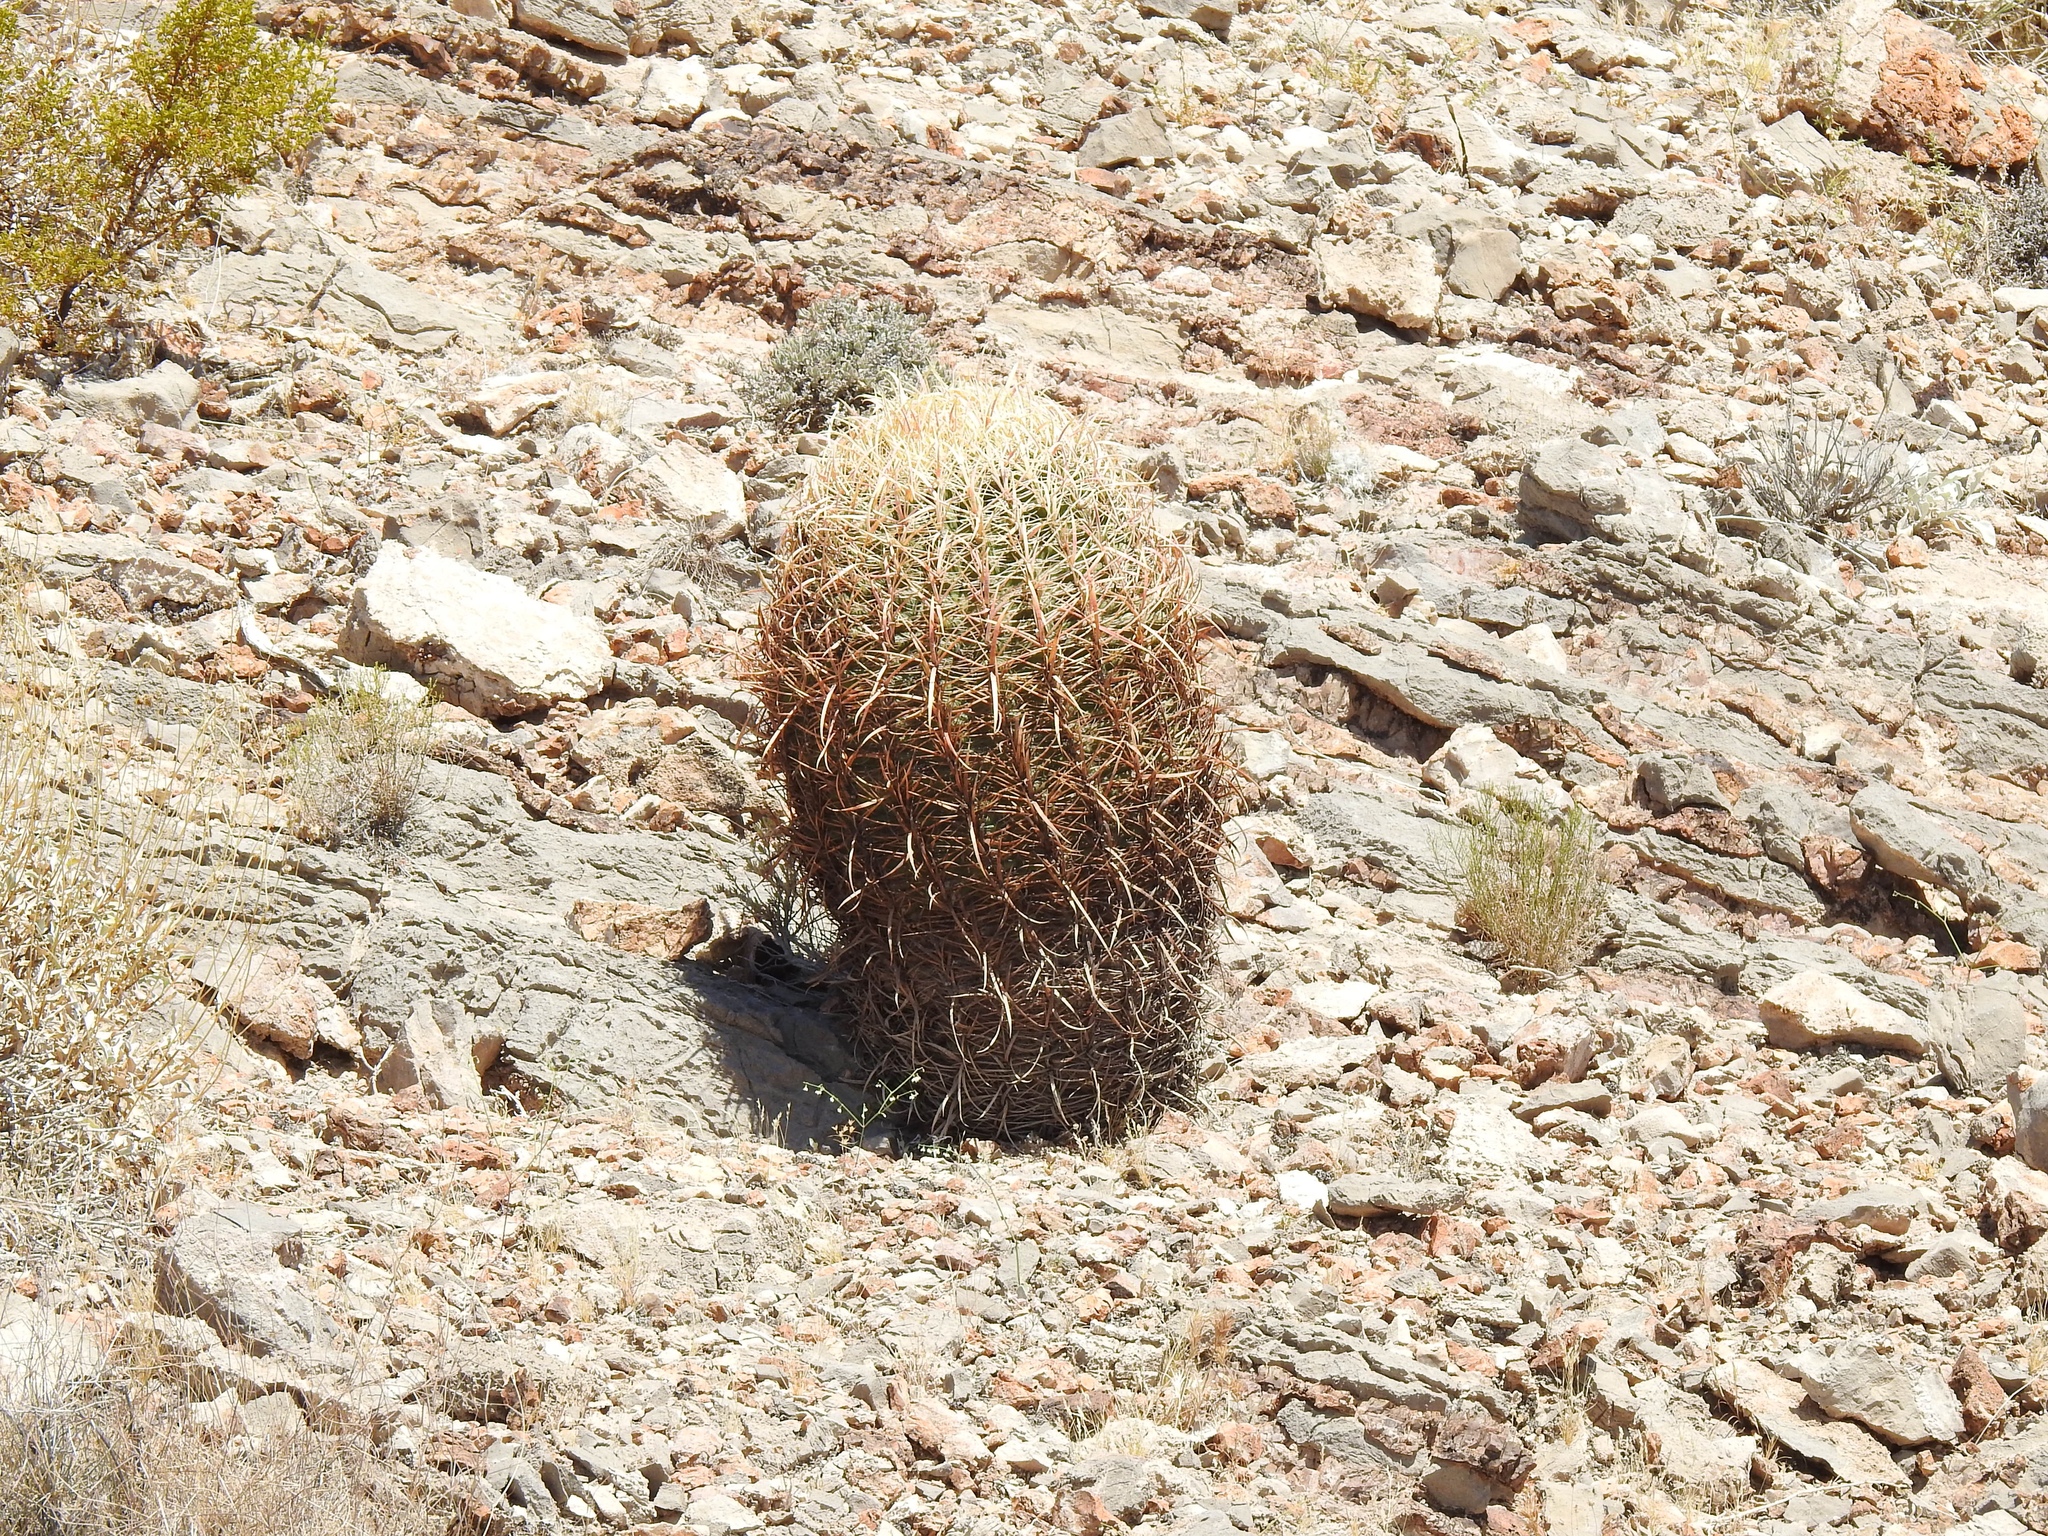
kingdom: Plantae
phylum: Tracheophyta
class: Magnoliopsida
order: Caryophyllales
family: Cactaceae
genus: Ferocactus
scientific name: Ferocactus cylindraceus
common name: California barrel cactus
